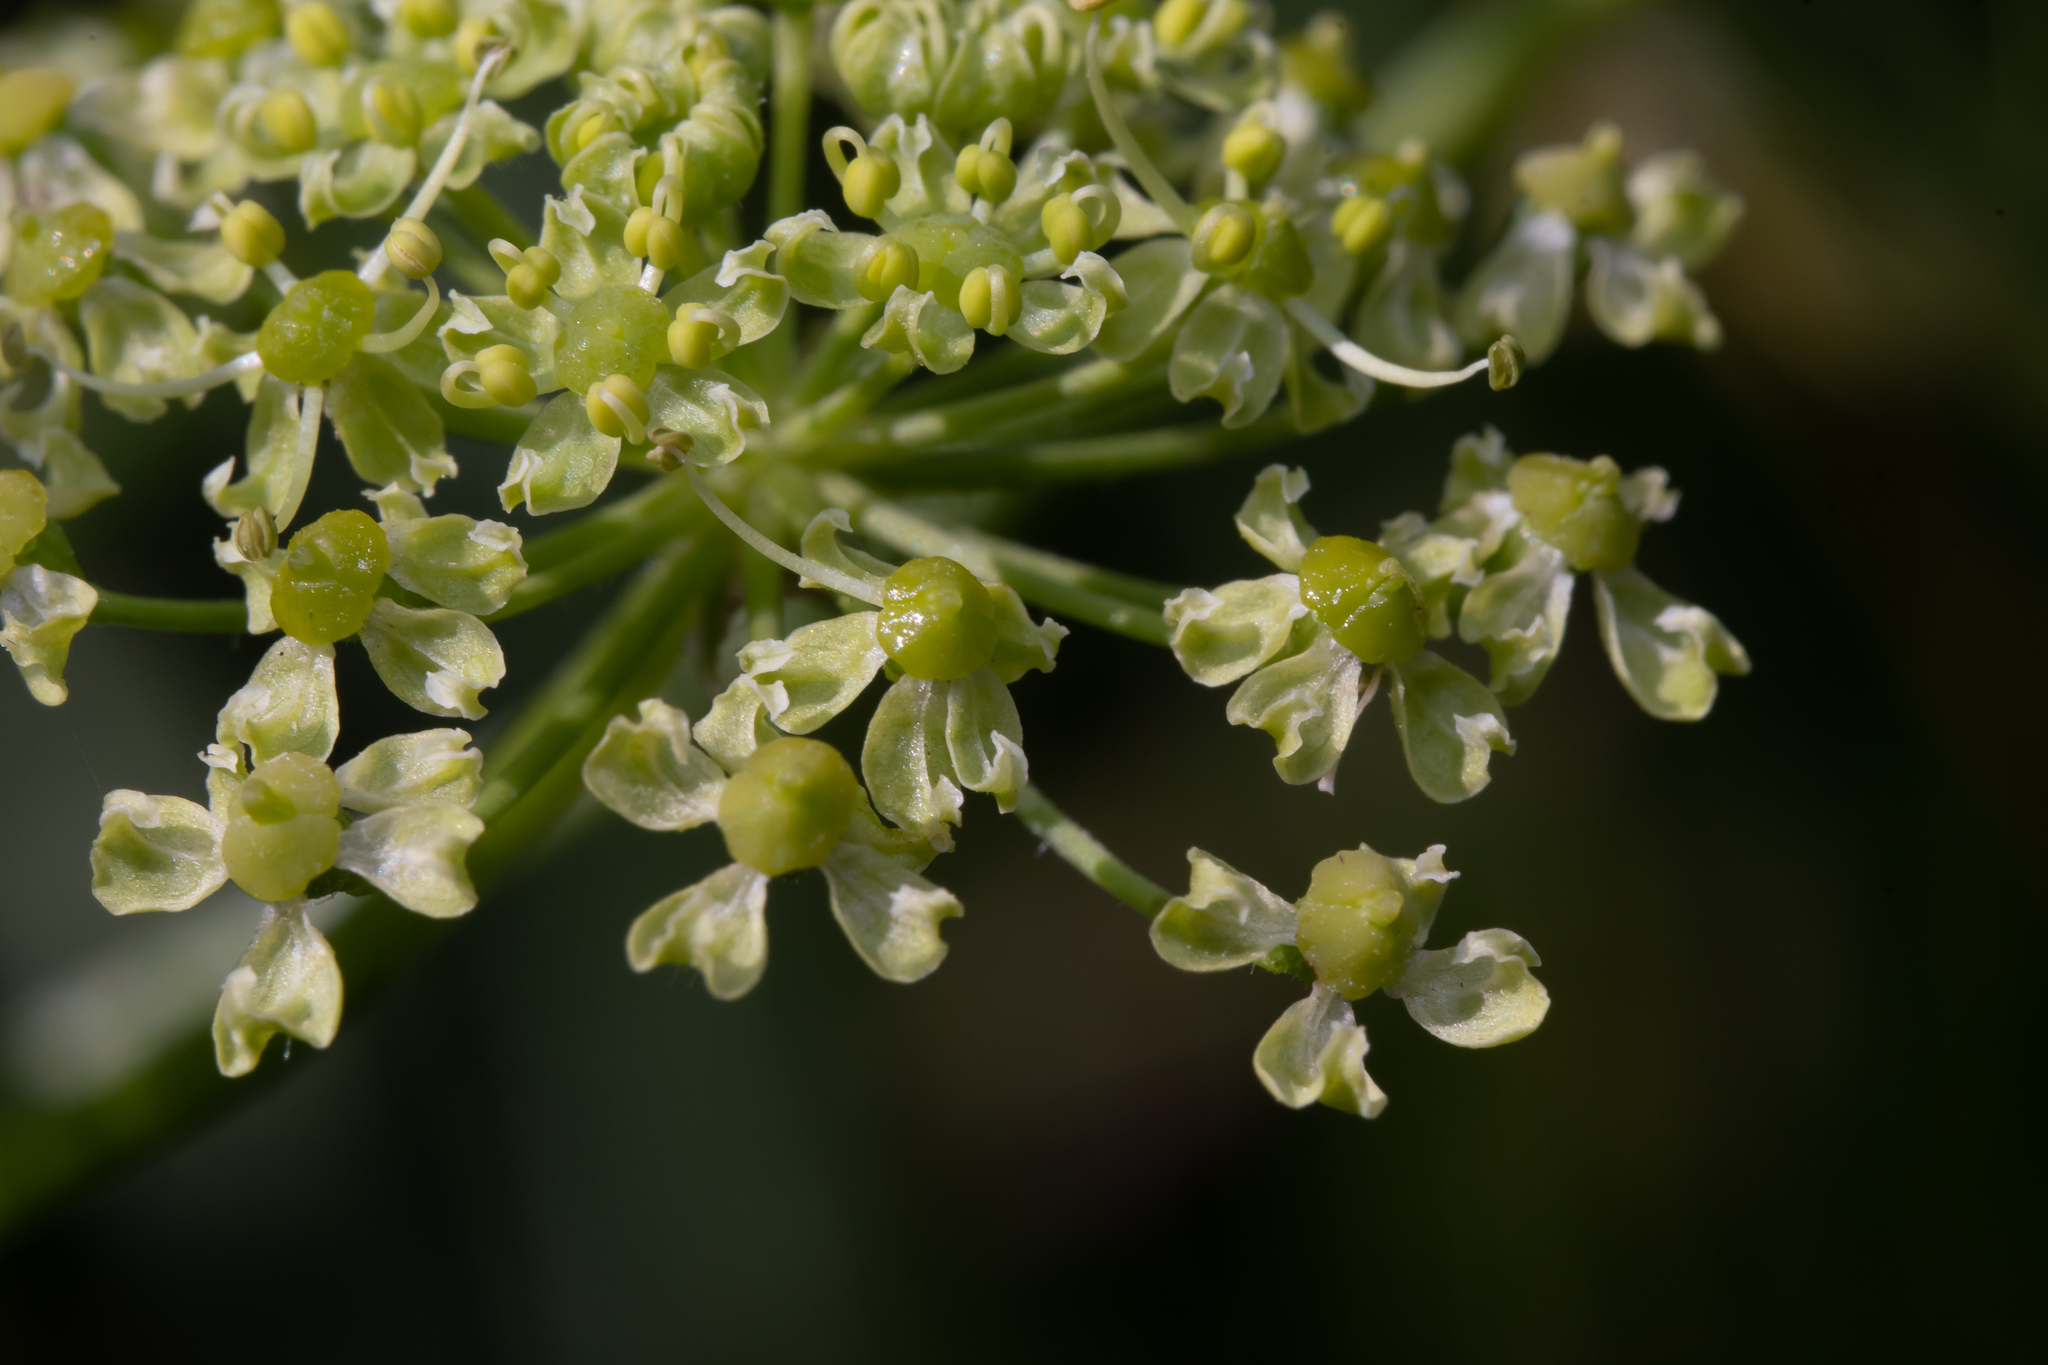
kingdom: Plantae
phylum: Tracheophyta
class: Magnoliopsida
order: Apiales
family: Apiaceae
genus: Heracleum
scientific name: Heracleum sphondylium
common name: Hogweed
